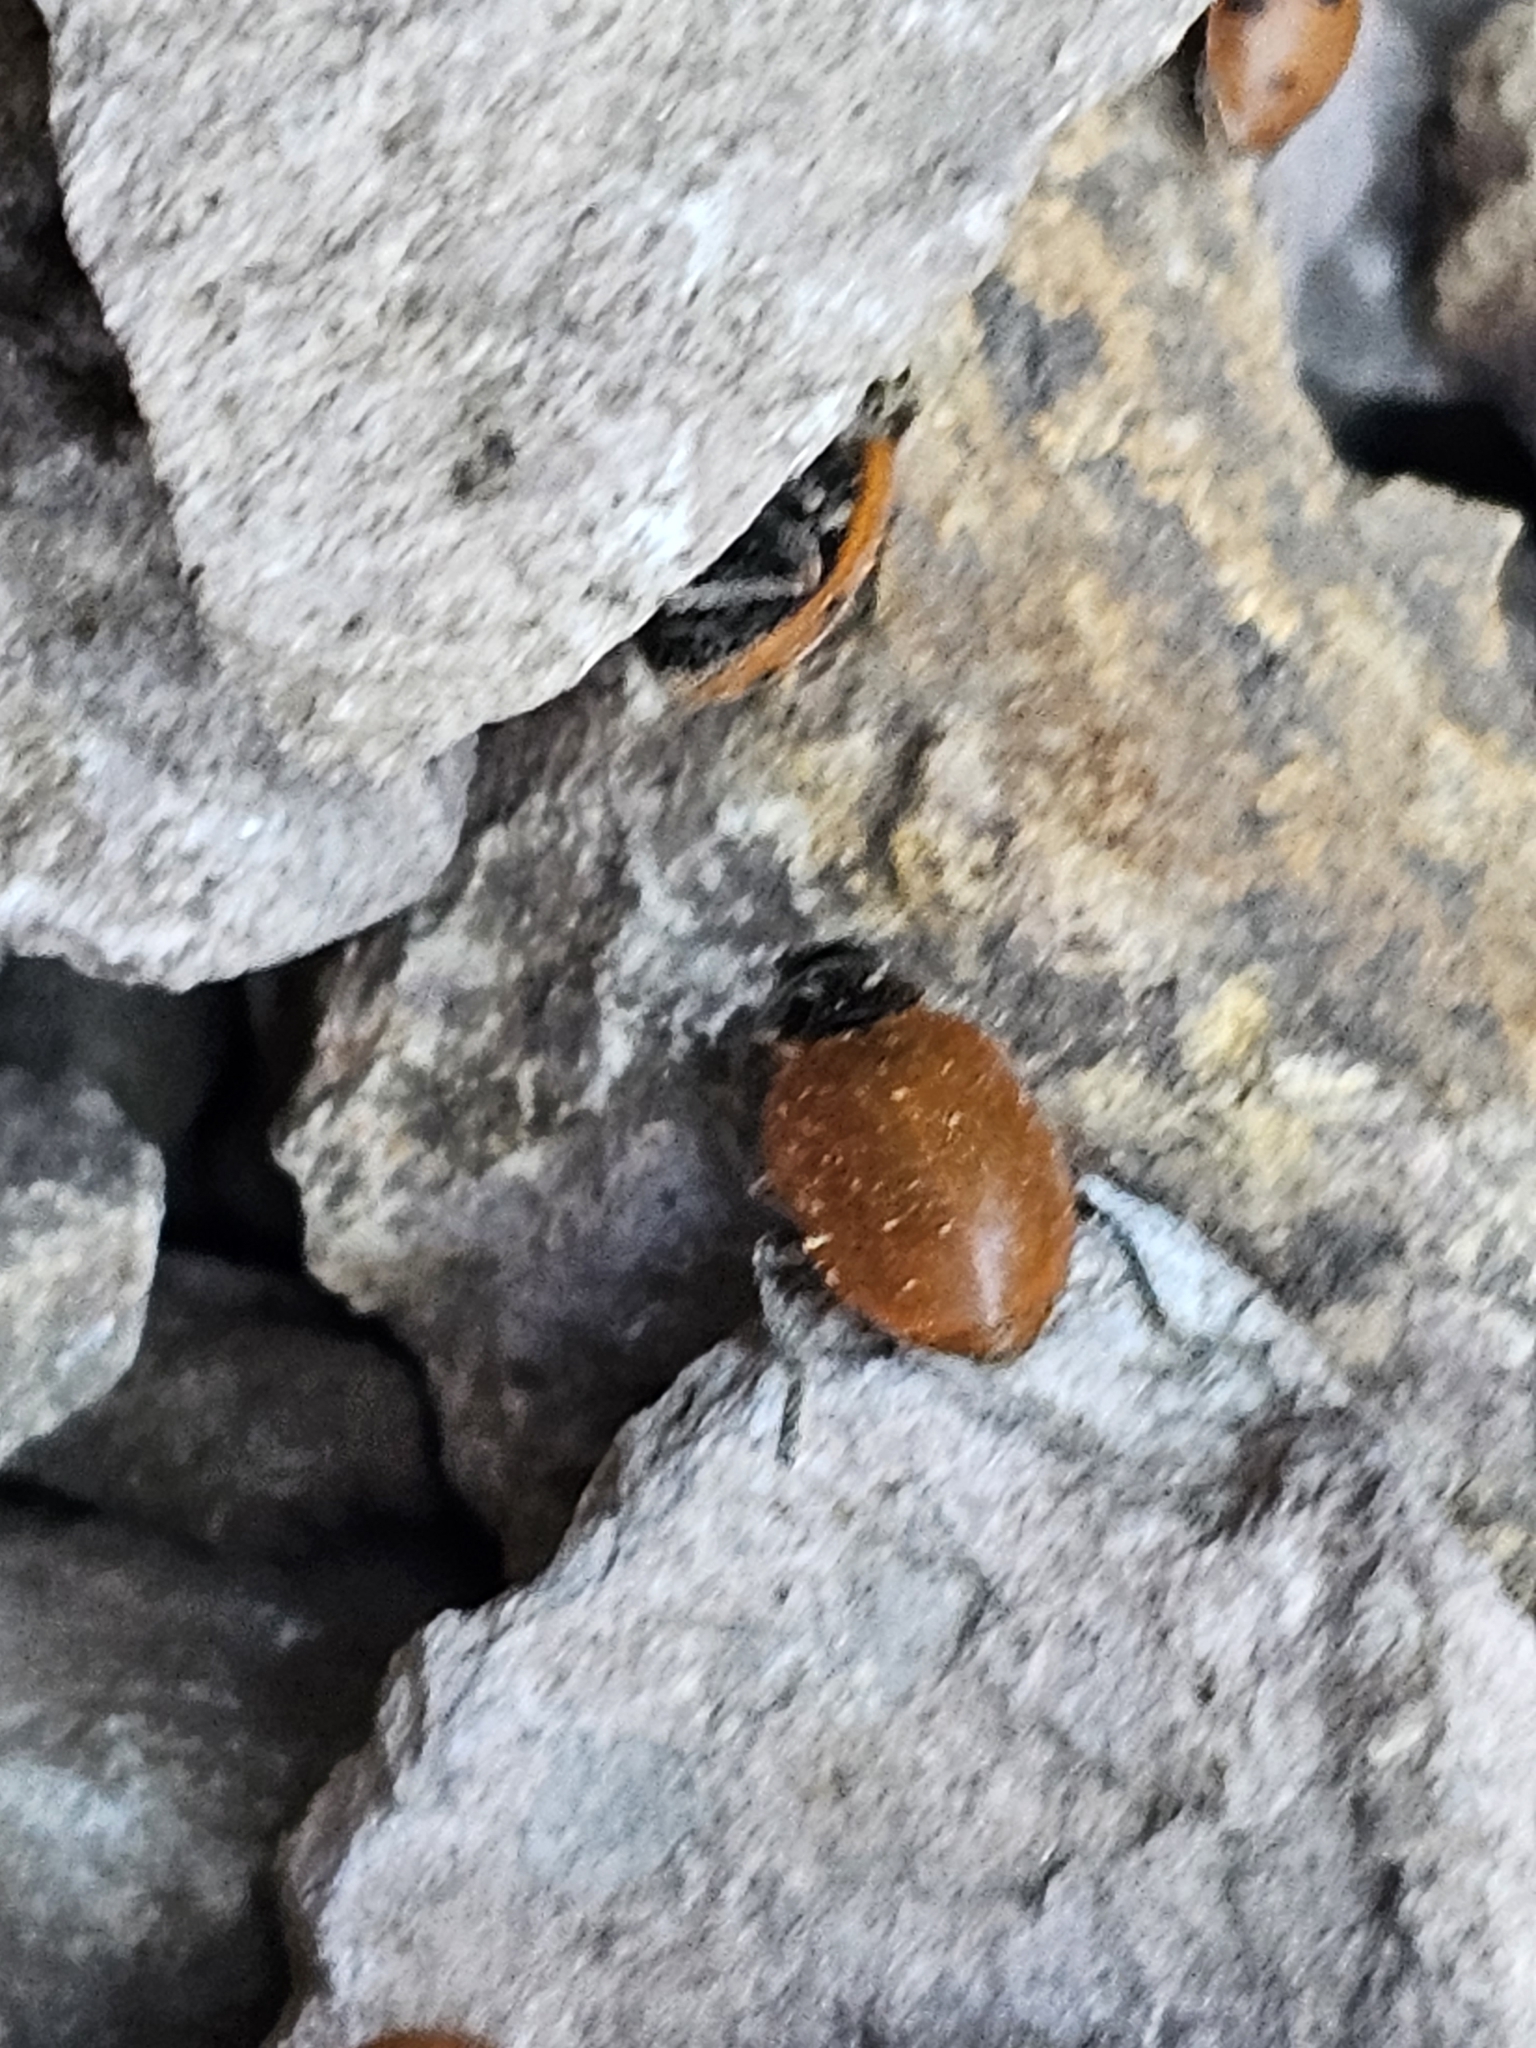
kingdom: Animalia
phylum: Arthropoda
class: Insecta
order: Coleoptera
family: Coccinellidae
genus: Hippodamia
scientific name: Hippodamia convergens
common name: Convergent lady beetle
